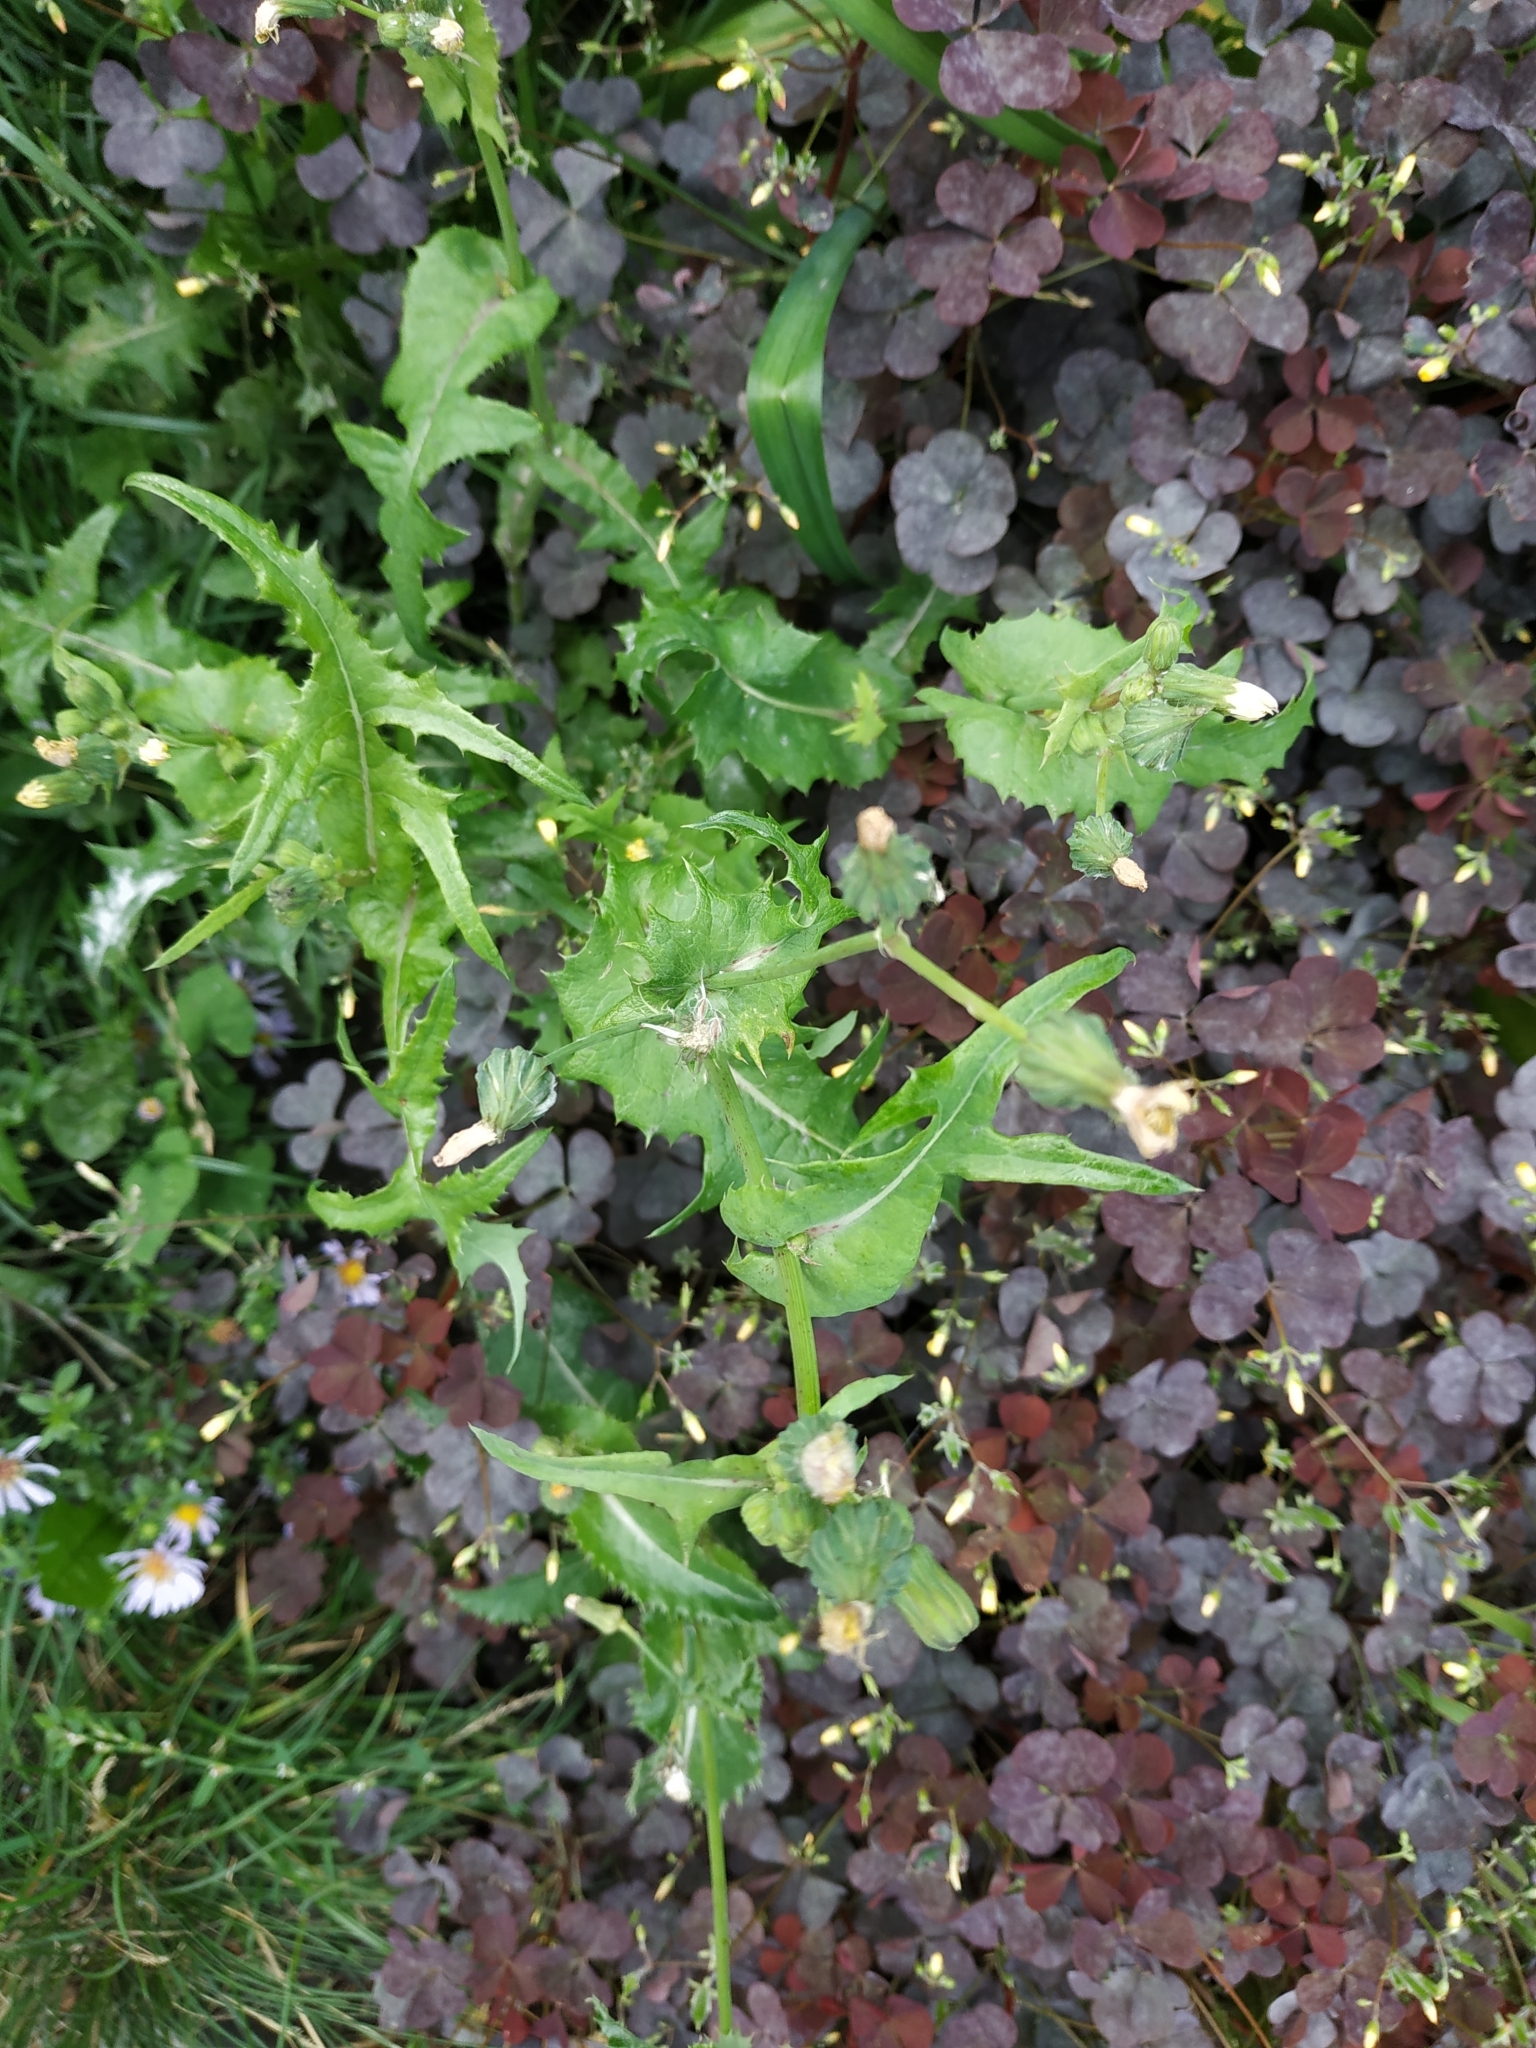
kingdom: Plantae
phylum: Tracheophyta
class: Magnoliopsida
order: Asterales
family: Asteraceae
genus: Sonchus
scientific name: Sonchus oleraceus
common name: Common sowthistle
